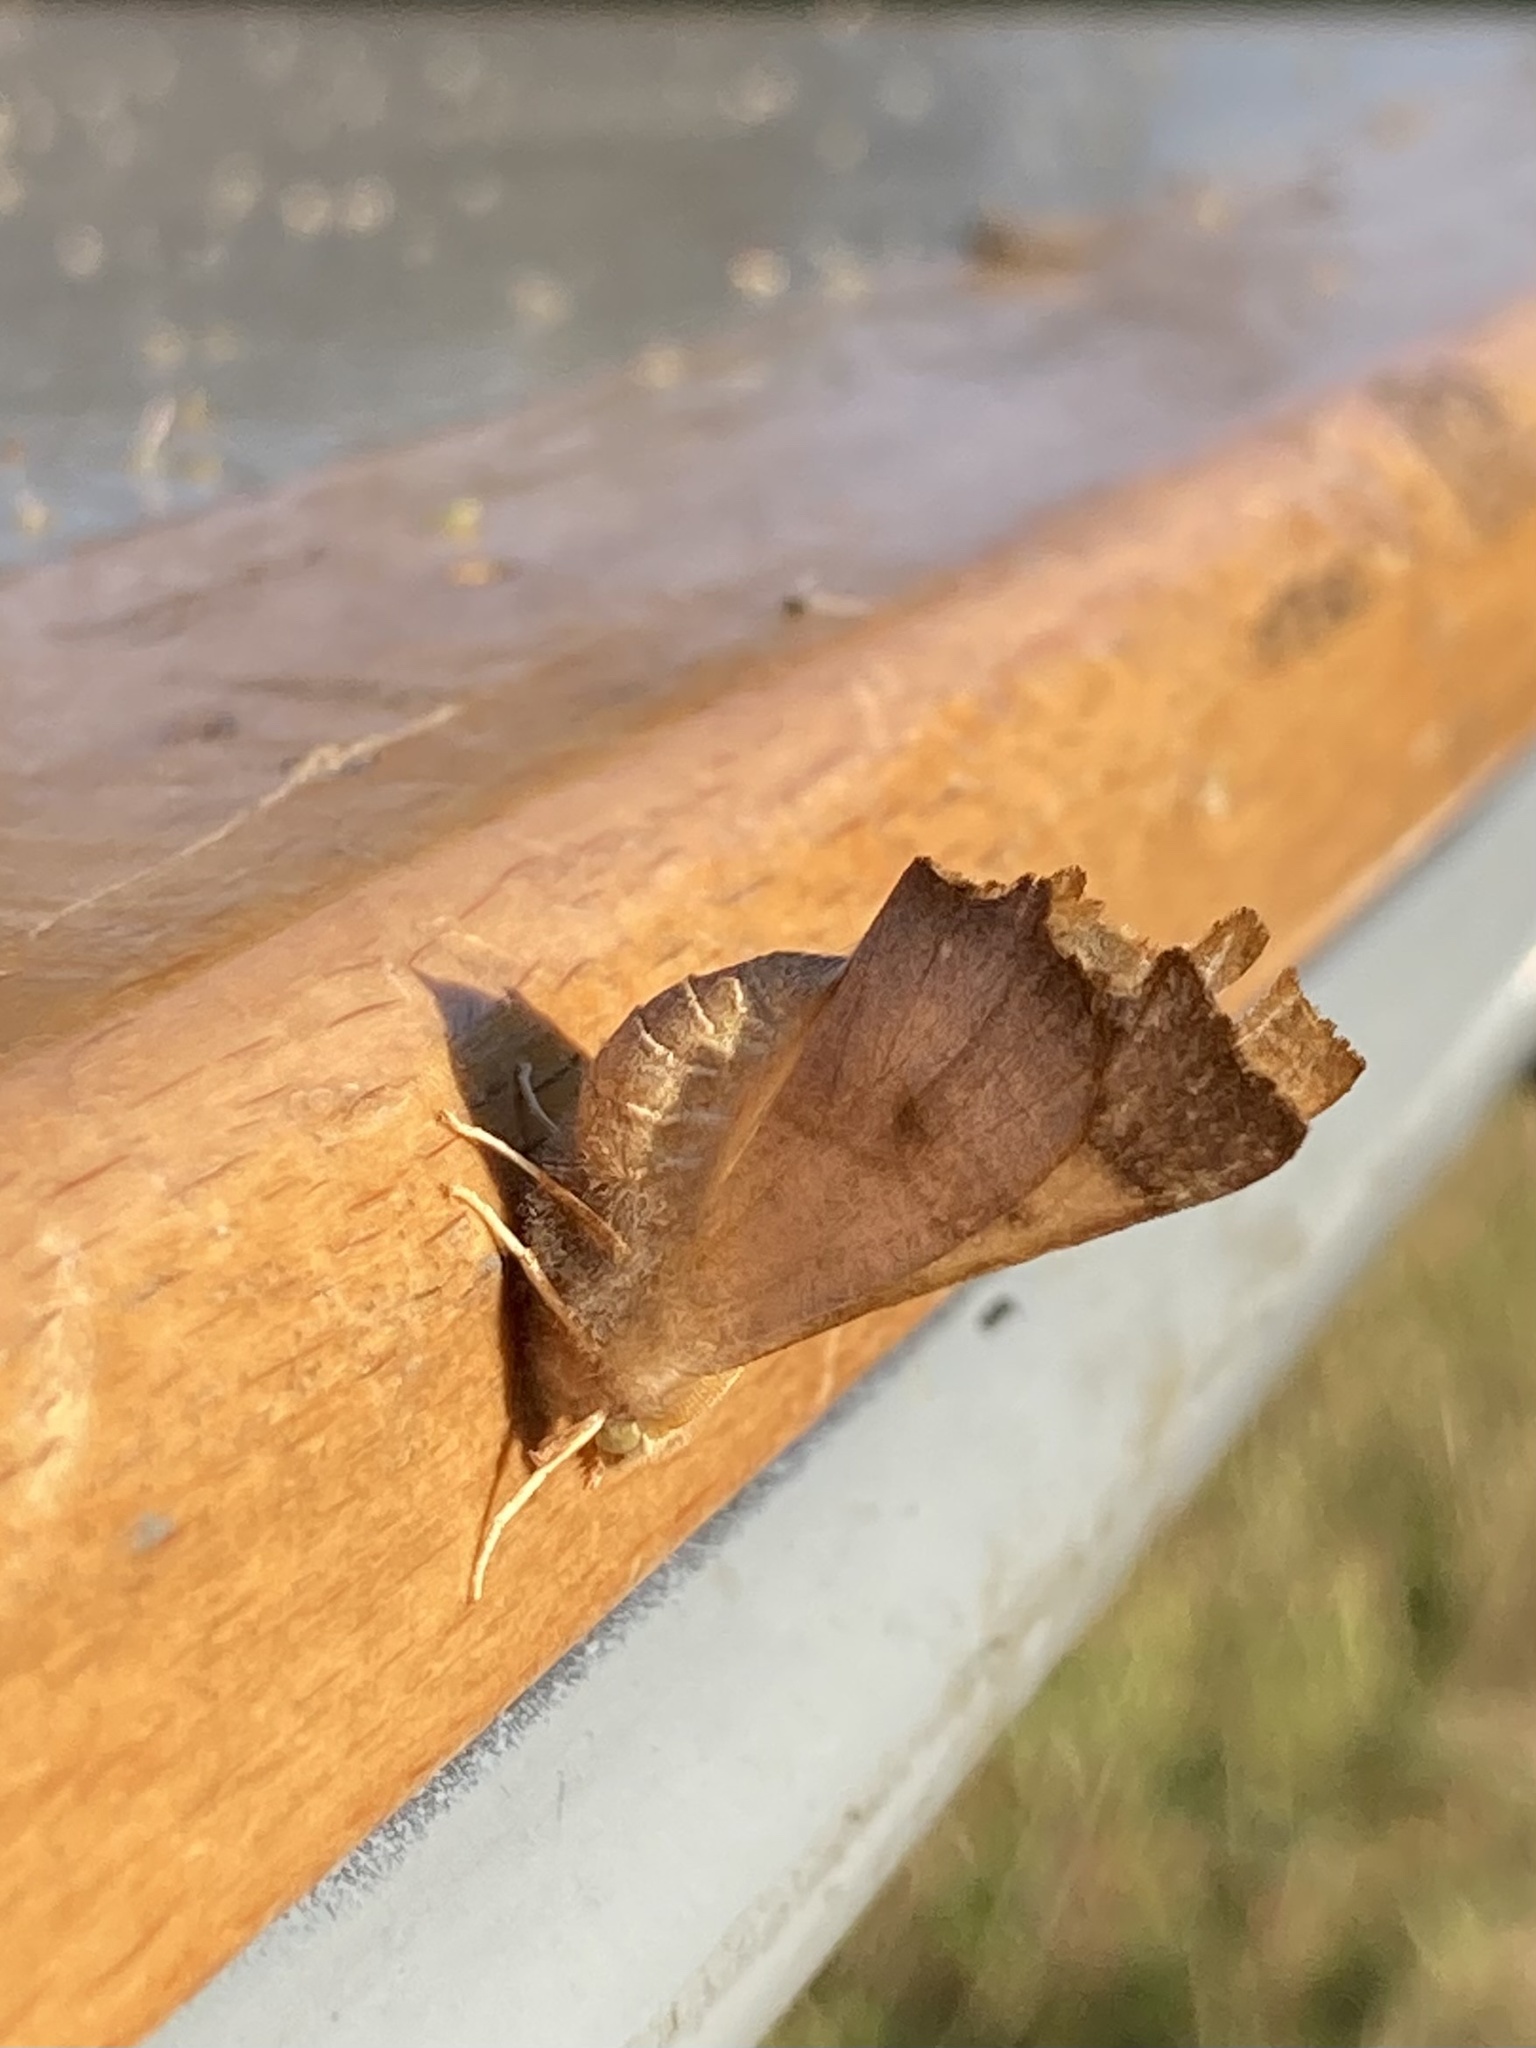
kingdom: Animalia
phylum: Arthropoda
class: Insecta
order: Lepidoptera
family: Geometridae
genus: Ennomos
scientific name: Ennomos fuscantaria
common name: Dusky thorn
